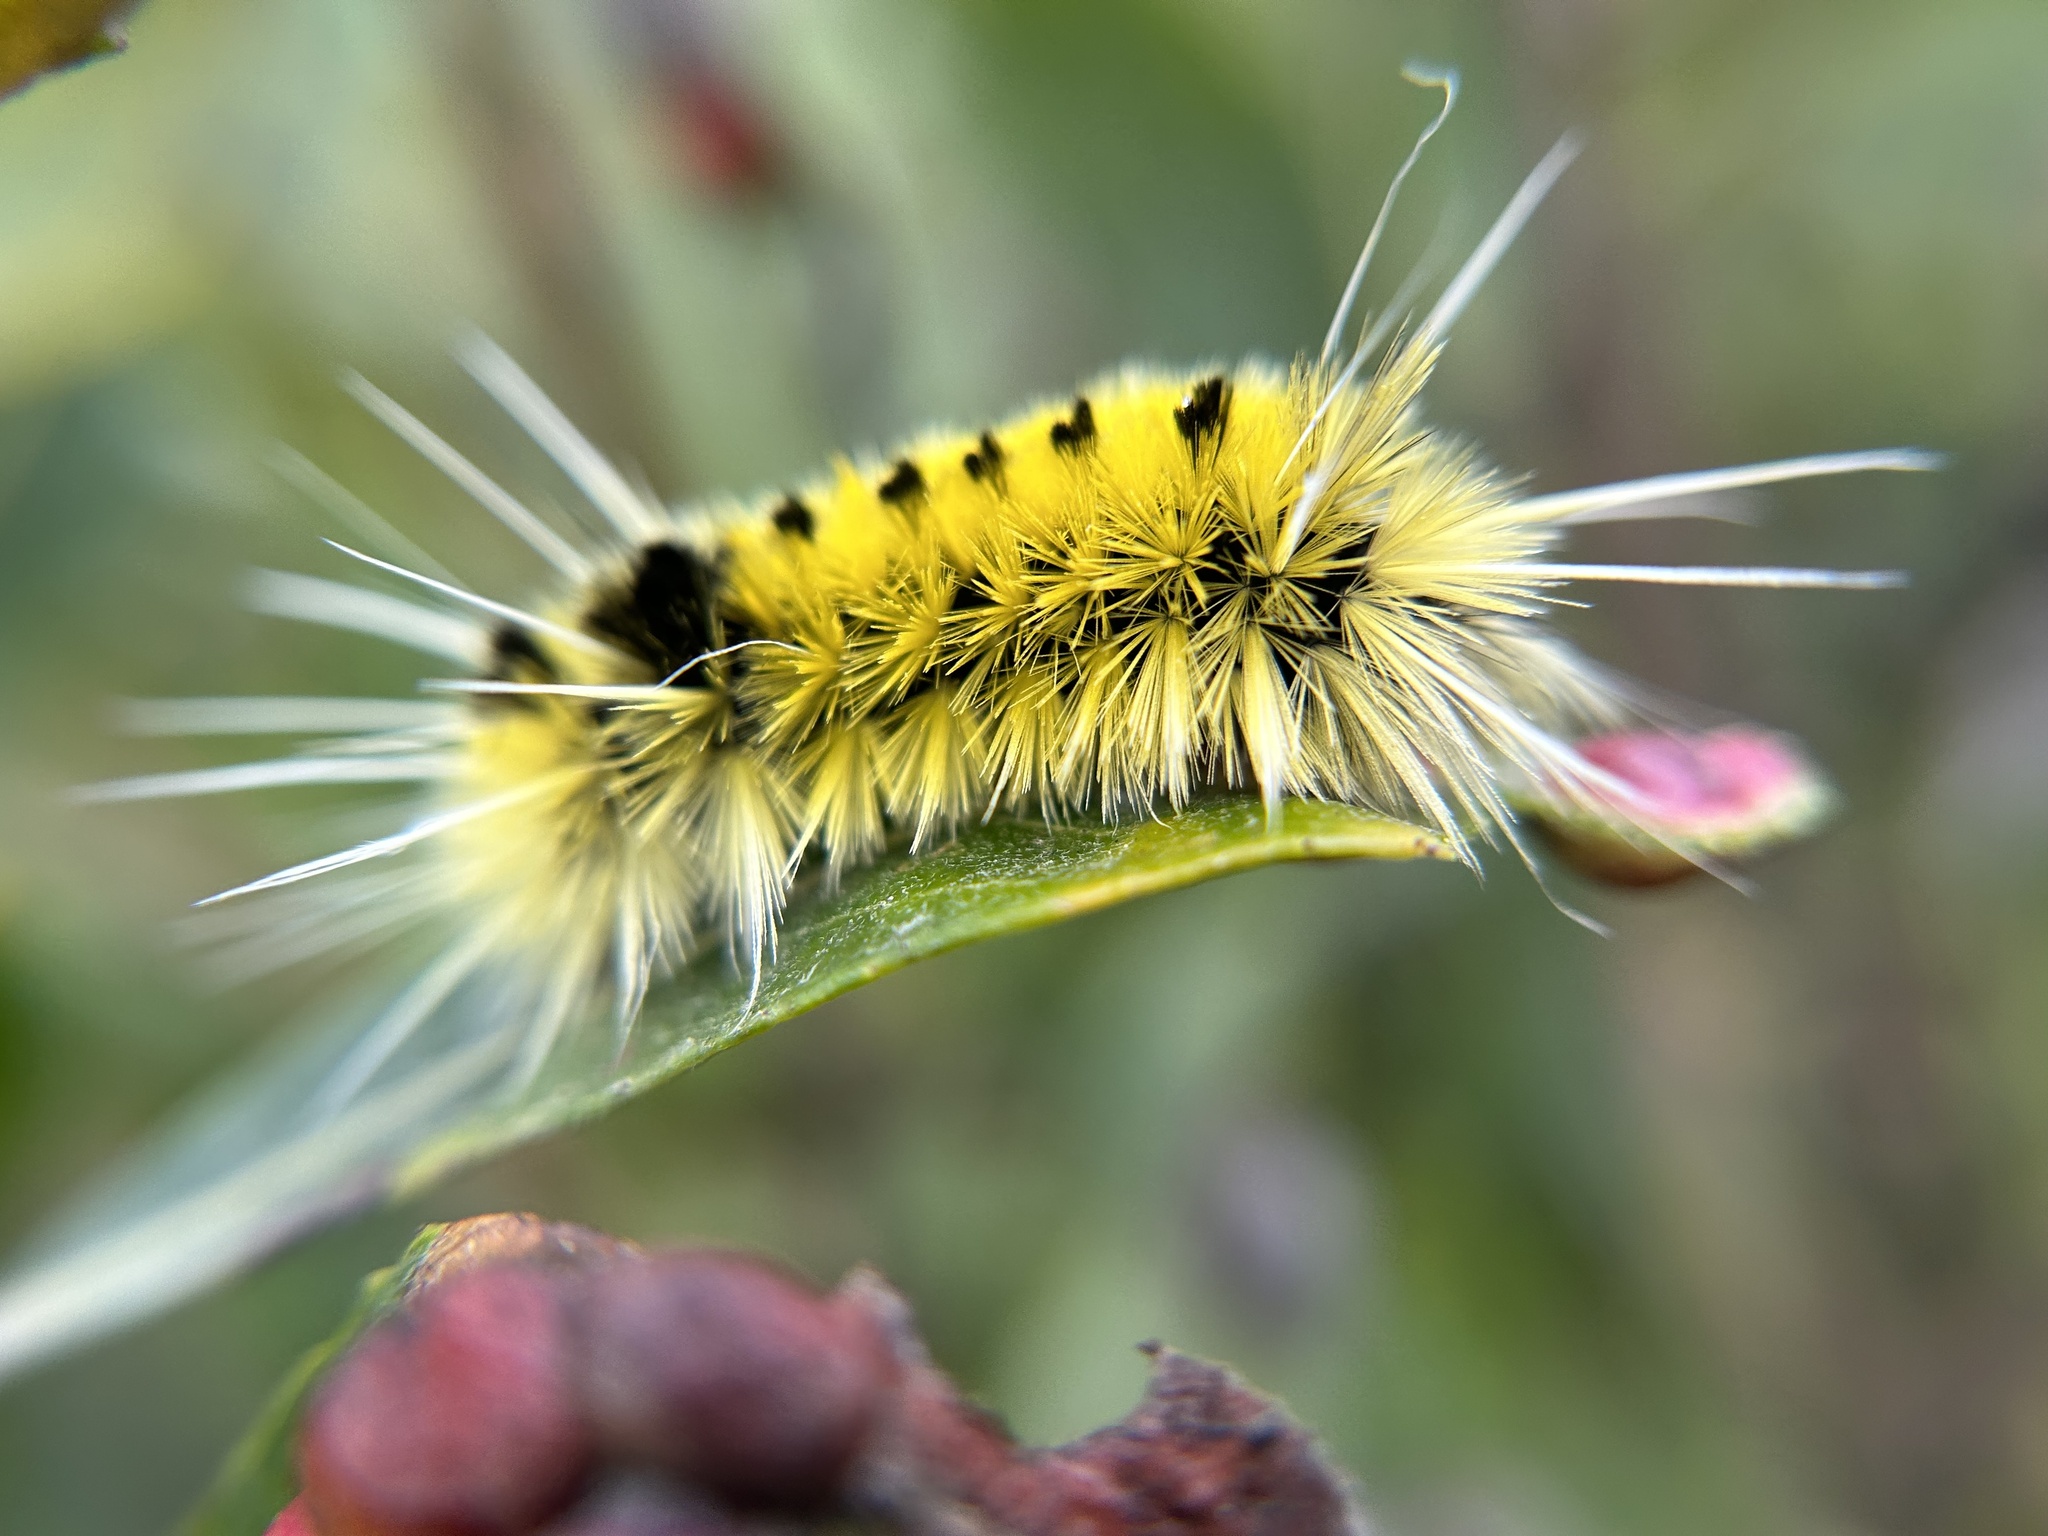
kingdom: Animalia
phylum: Arthropoda
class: Insecta
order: Lepidoptera
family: Erebidae
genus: Lophocampa
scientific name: Lophocampa maculata
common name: Spotted tussock moth
